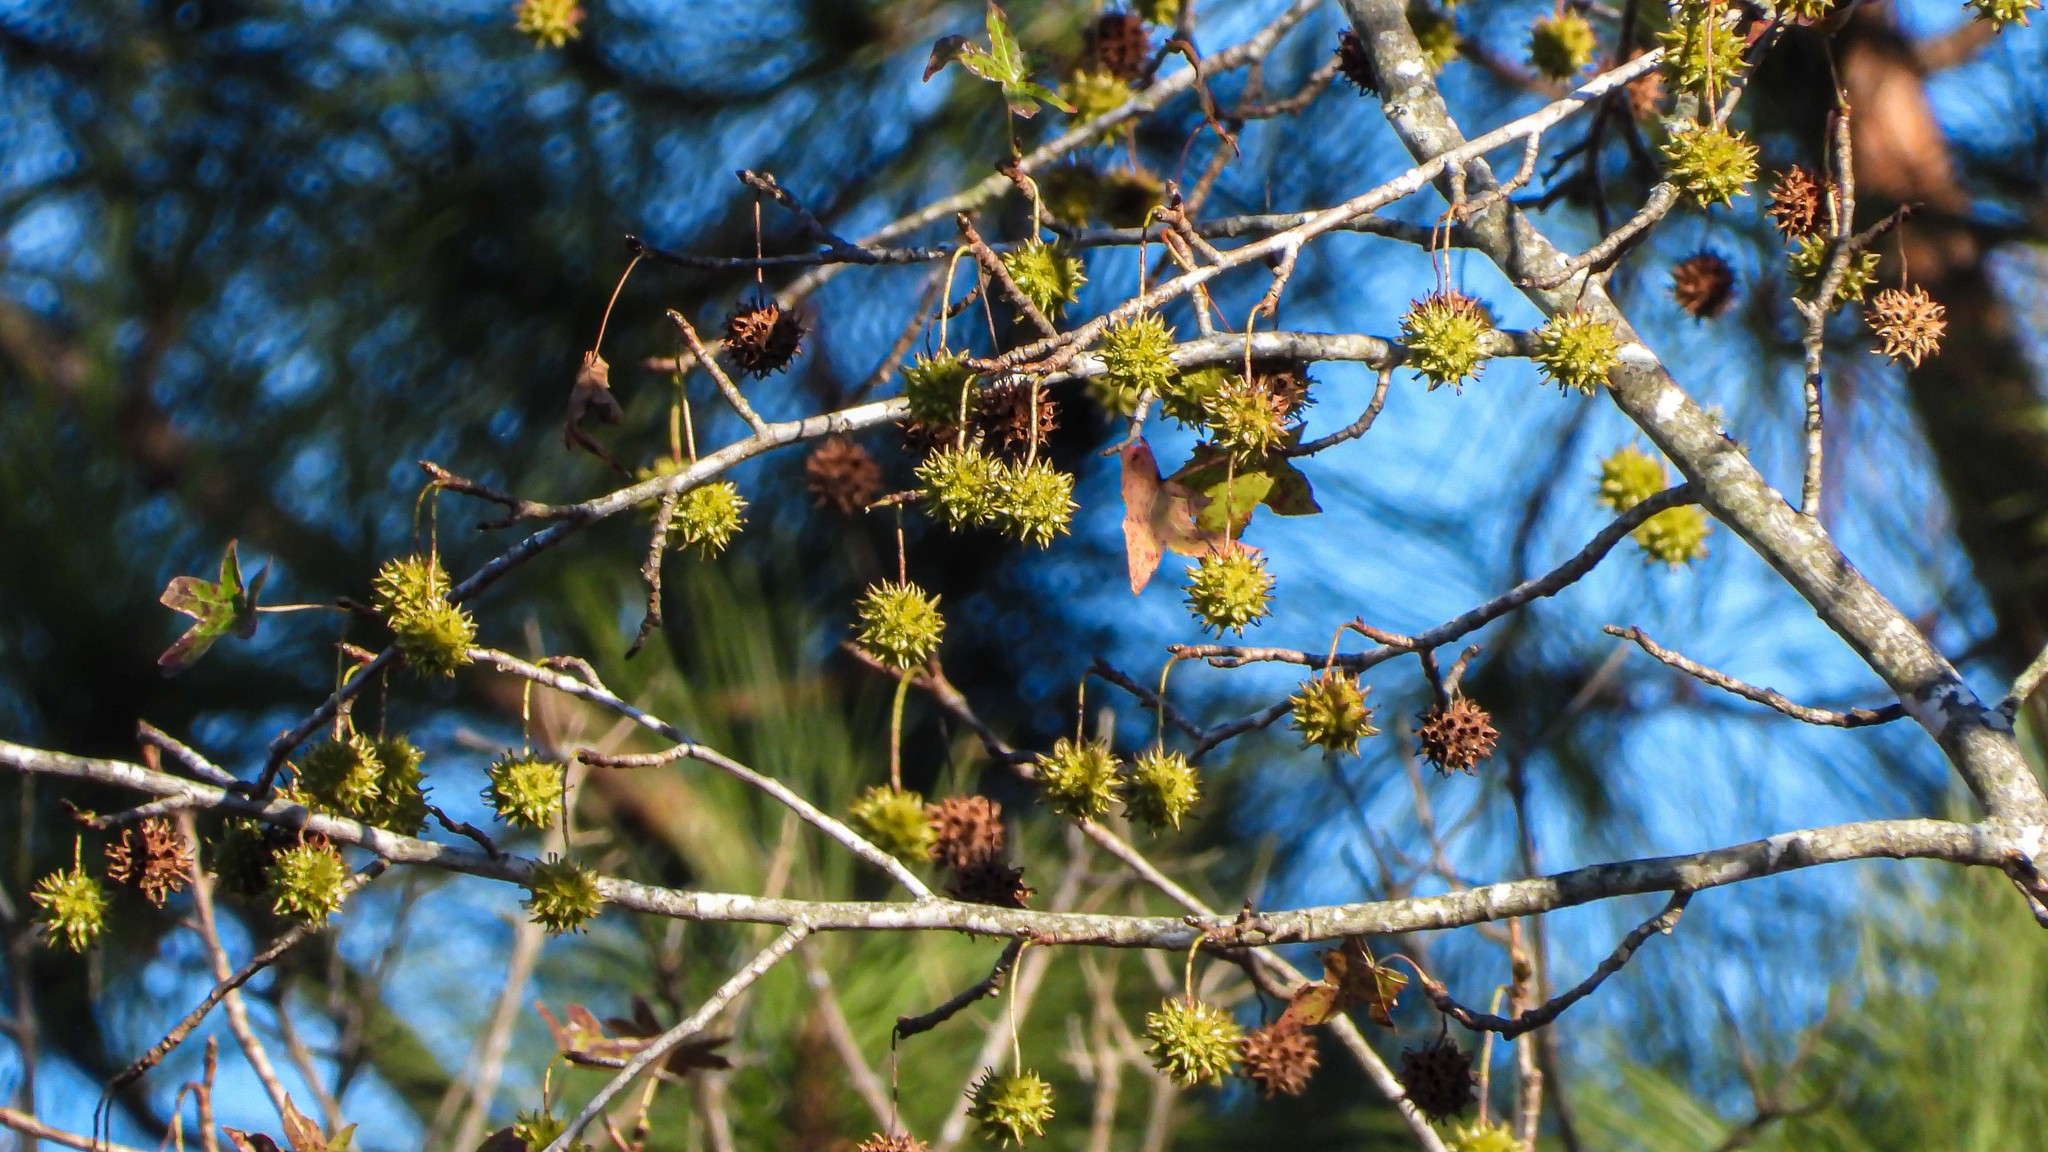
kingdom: Plantae
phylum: Tracheophyta
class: Magnoliopsida
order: Saxifragales
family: Altingiaceae
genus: Liquidambar
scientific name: Liquidambar styraciflua
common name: Sweet gum
